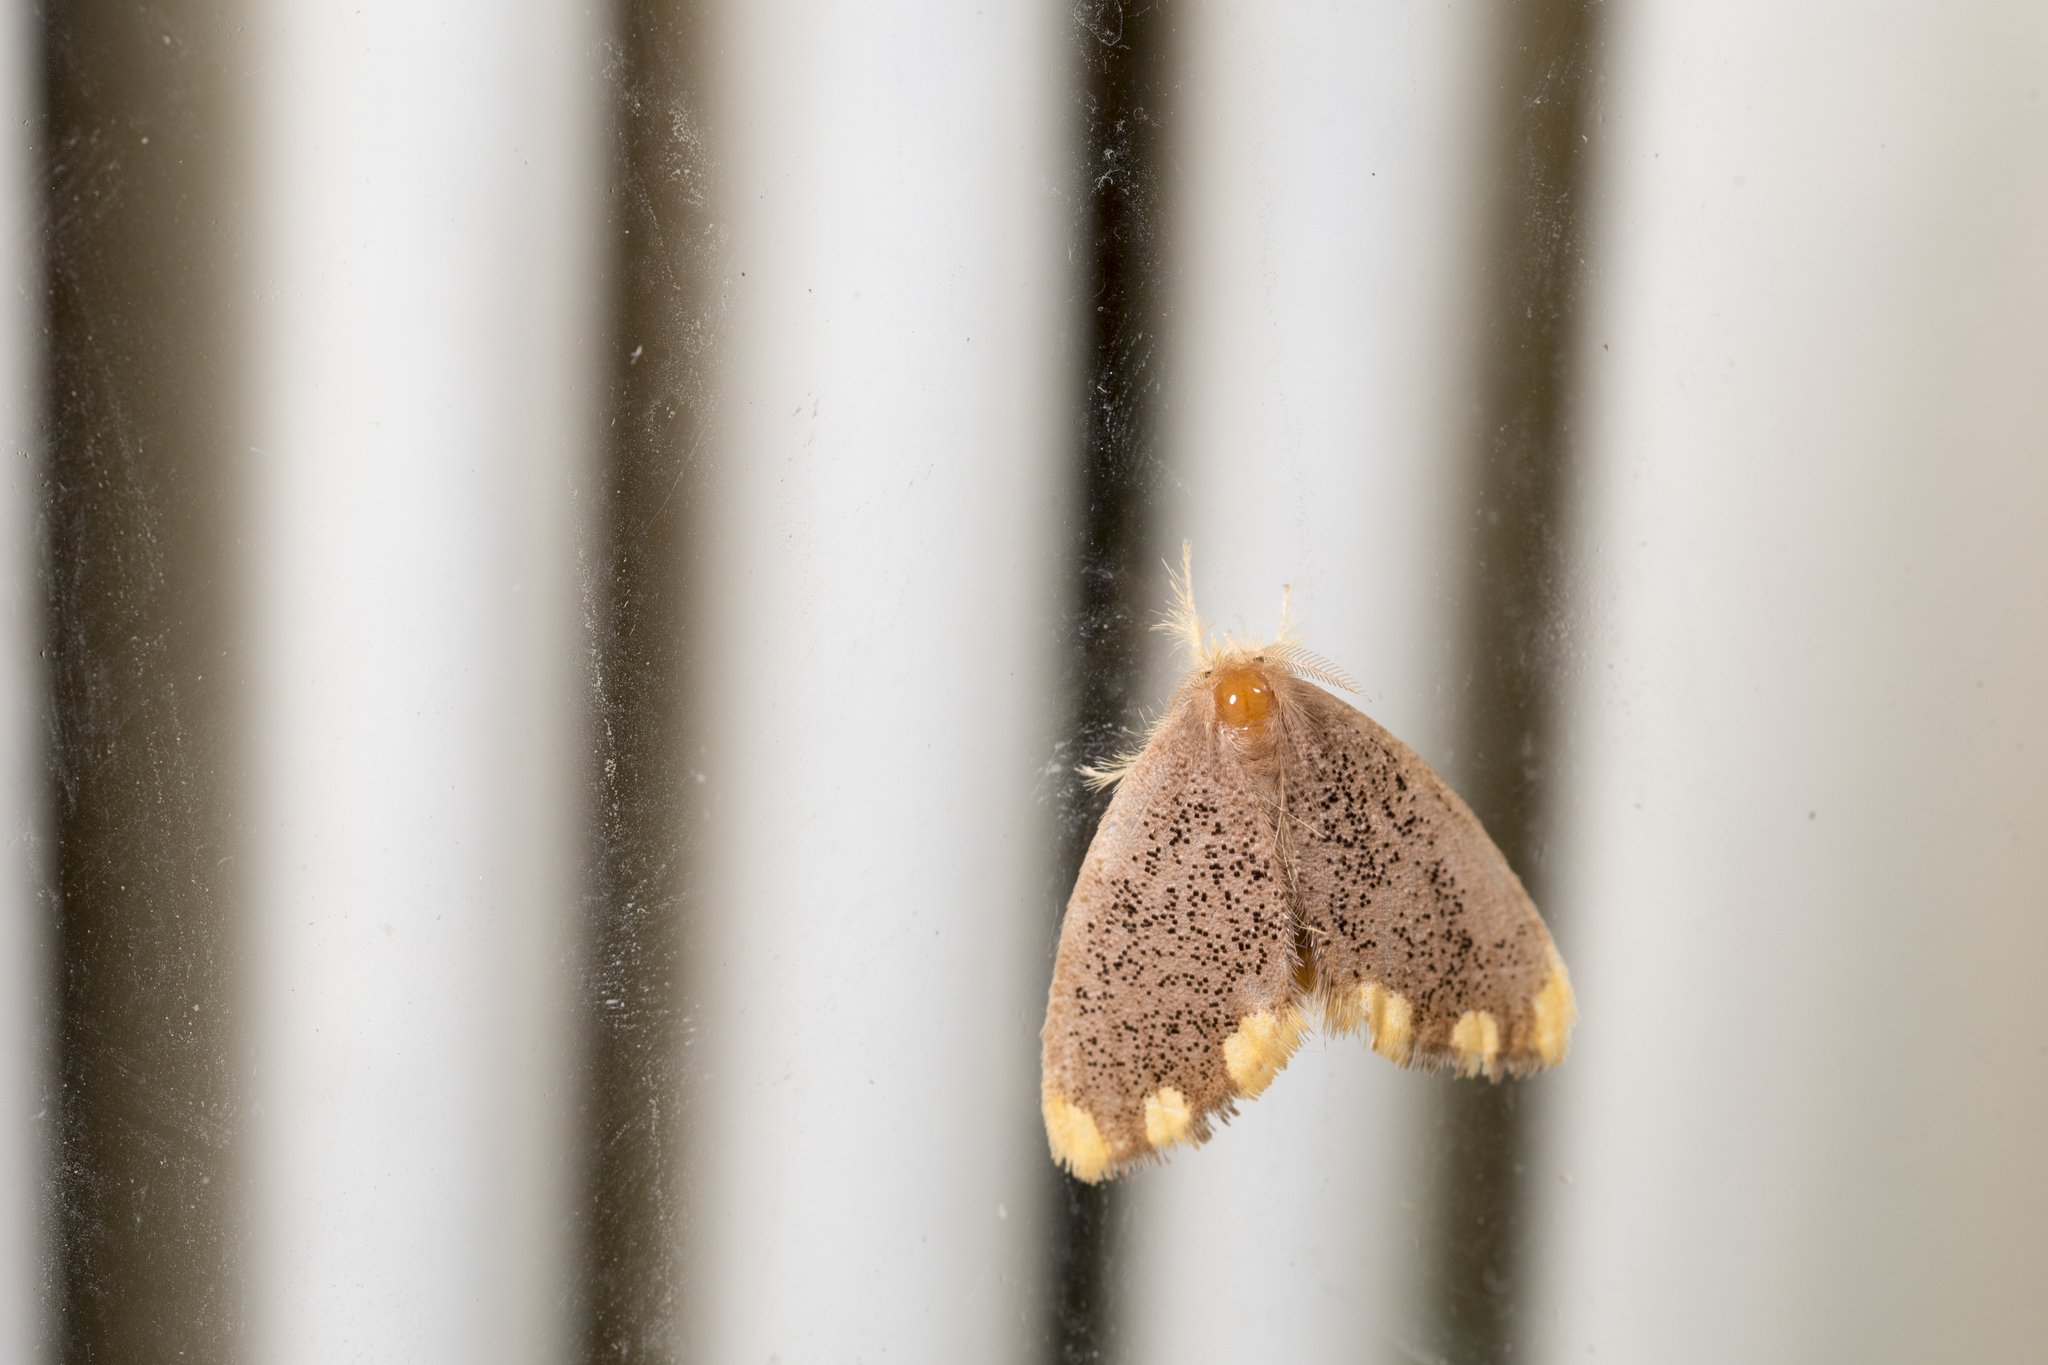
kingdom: Animalia
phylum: Arthropoda
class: Insecta
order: Lepidoptera
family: Erebidae
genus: Somena
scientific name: Somena scintillans
